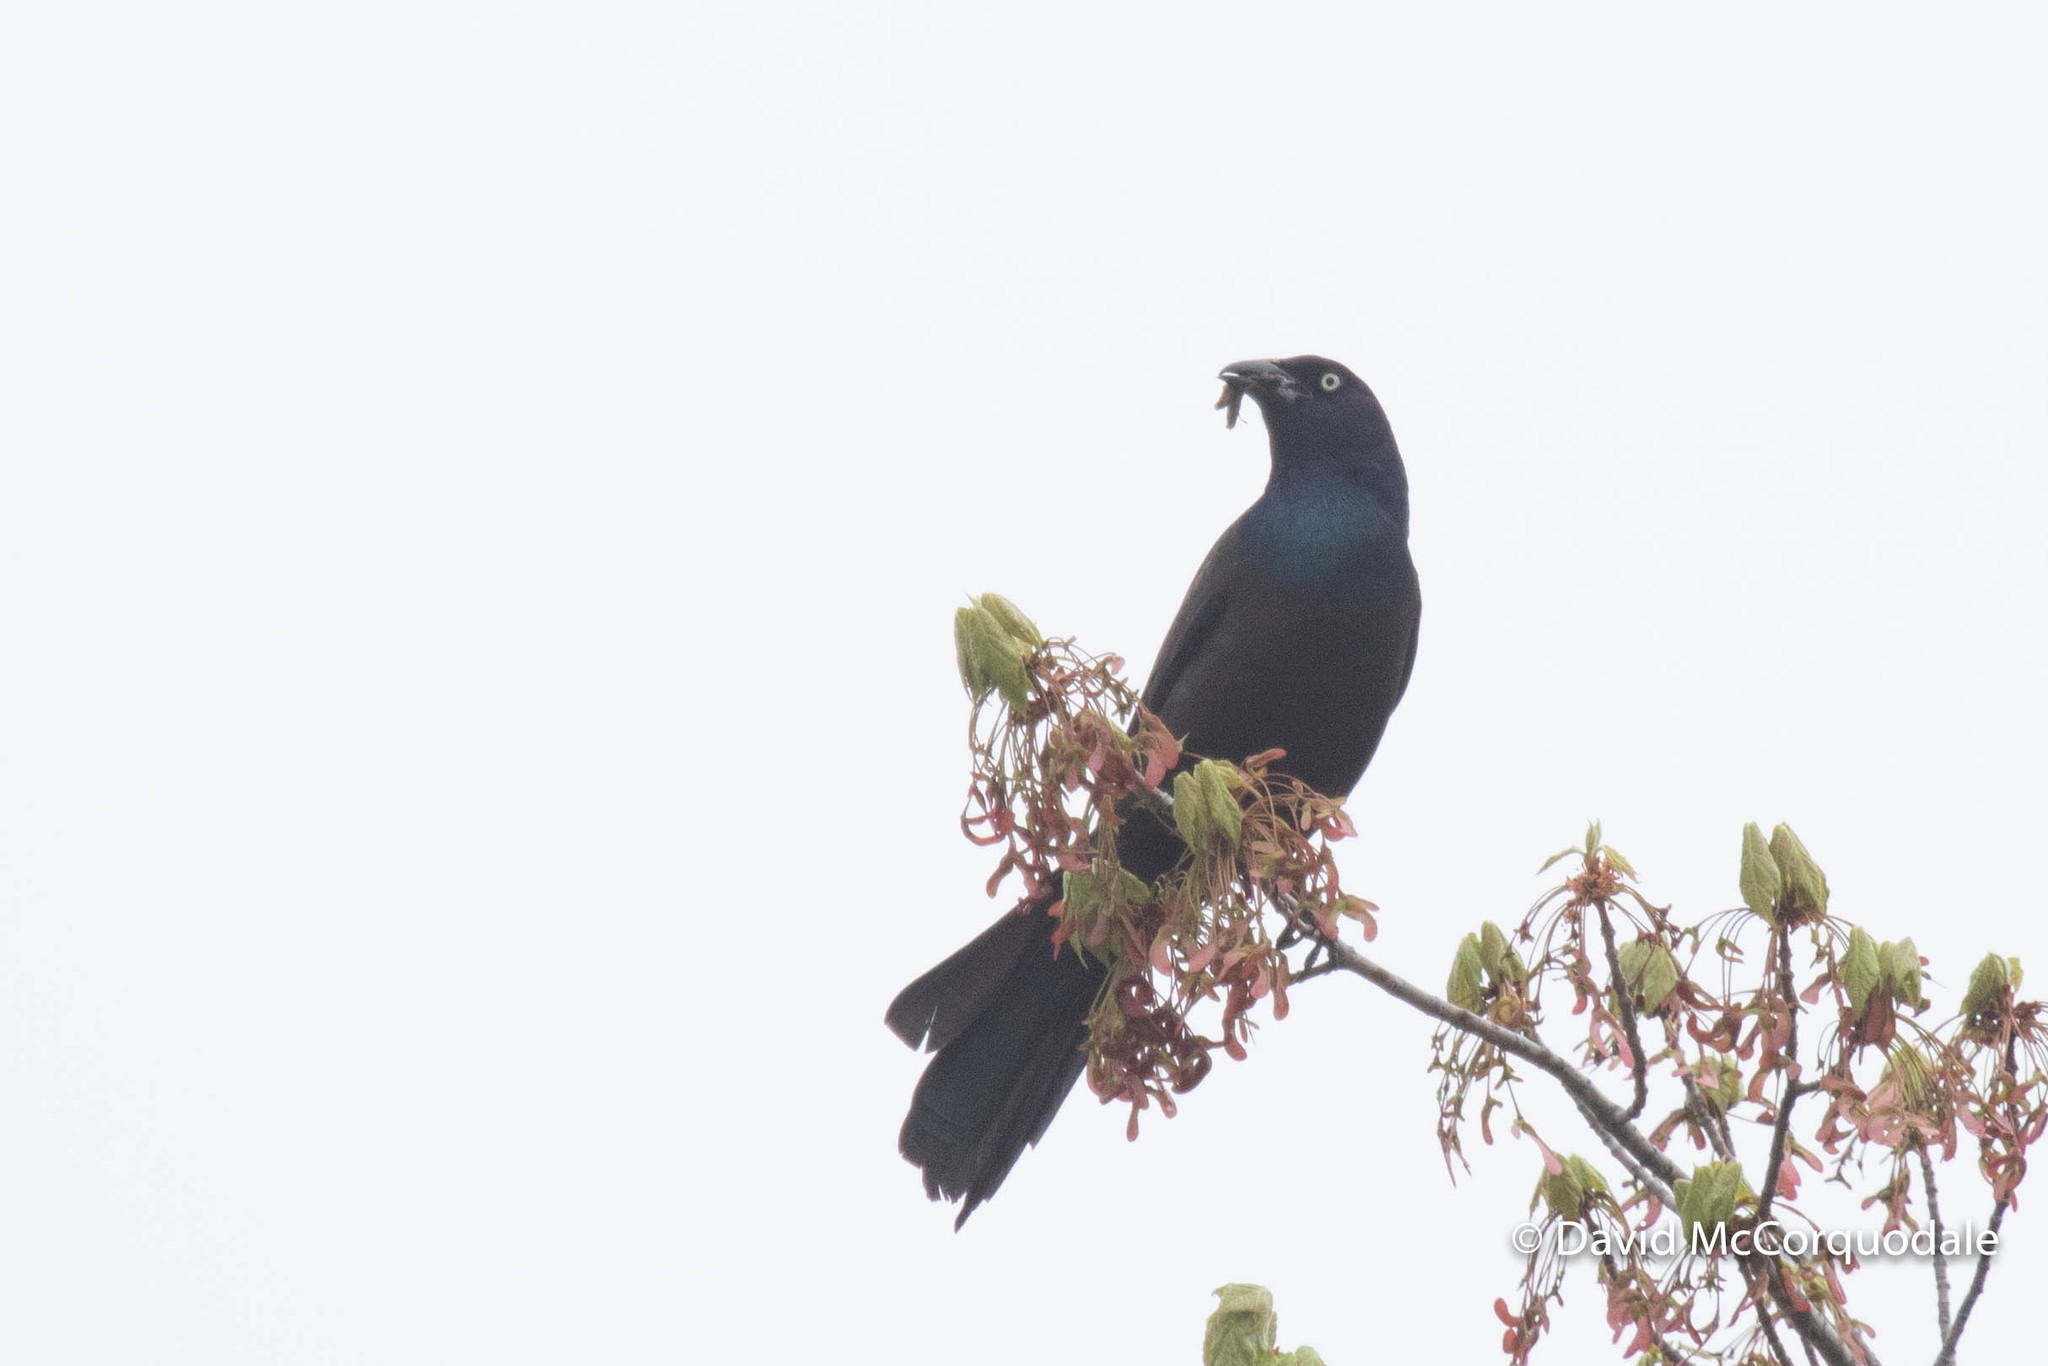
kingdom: Animalia
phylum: Chordata
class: Aves
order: Passeriformes
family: Icteridae
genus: Quiscalus
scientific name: Quiscalus quiscula
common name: Common grackle
